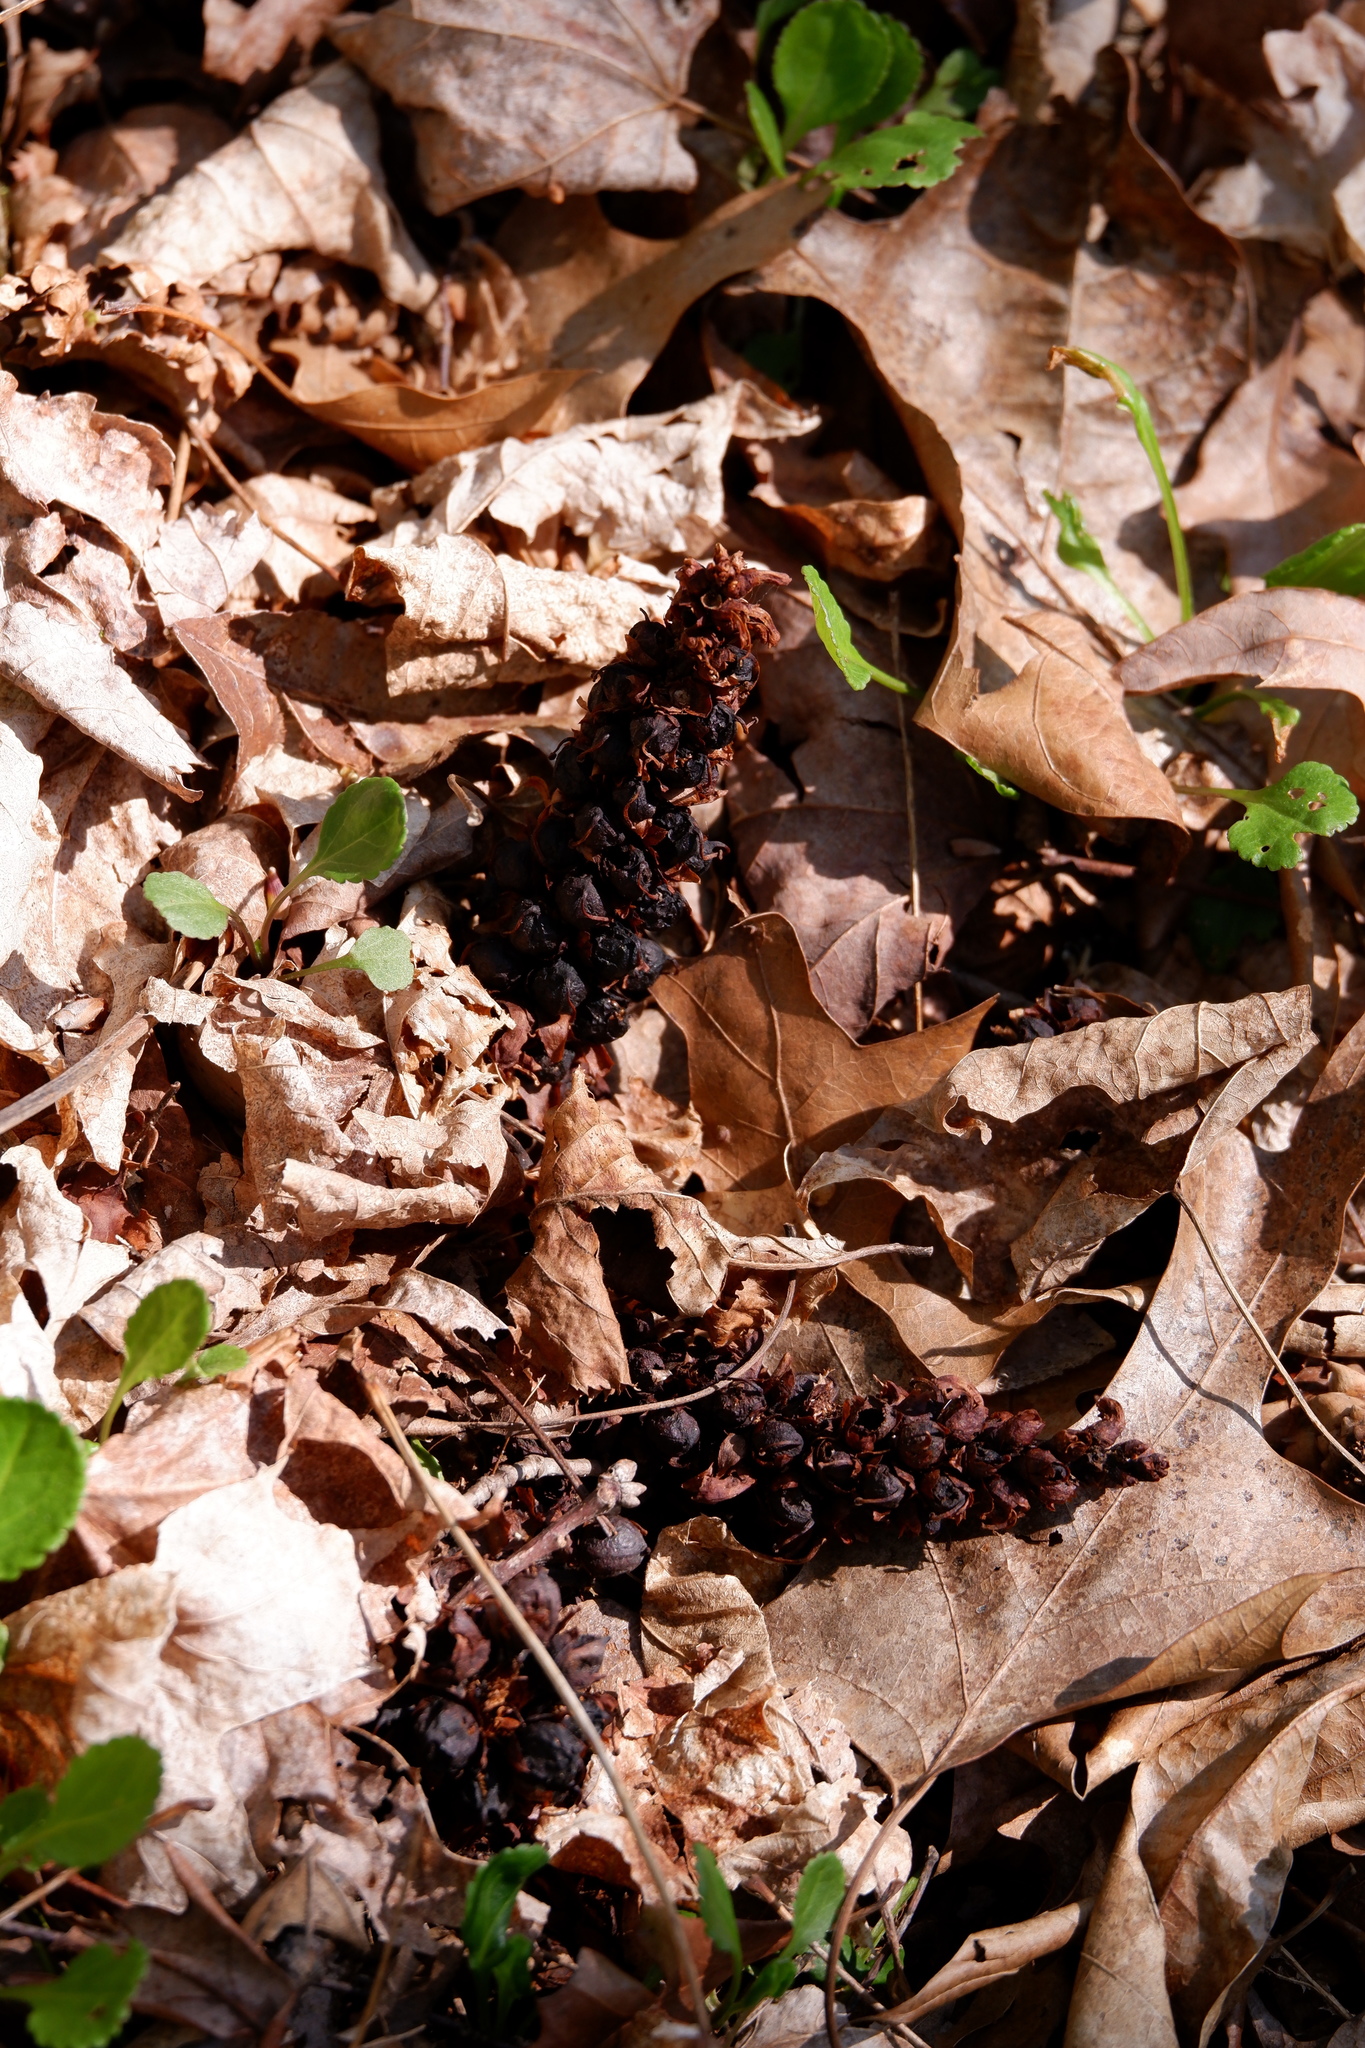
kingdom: Plantae
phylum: Tracheophyta
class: Magnoliopsida
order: Lamiales
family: Orobanchaceae
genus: Conopholis
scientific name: Conopholis americana
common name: American cancer-root
